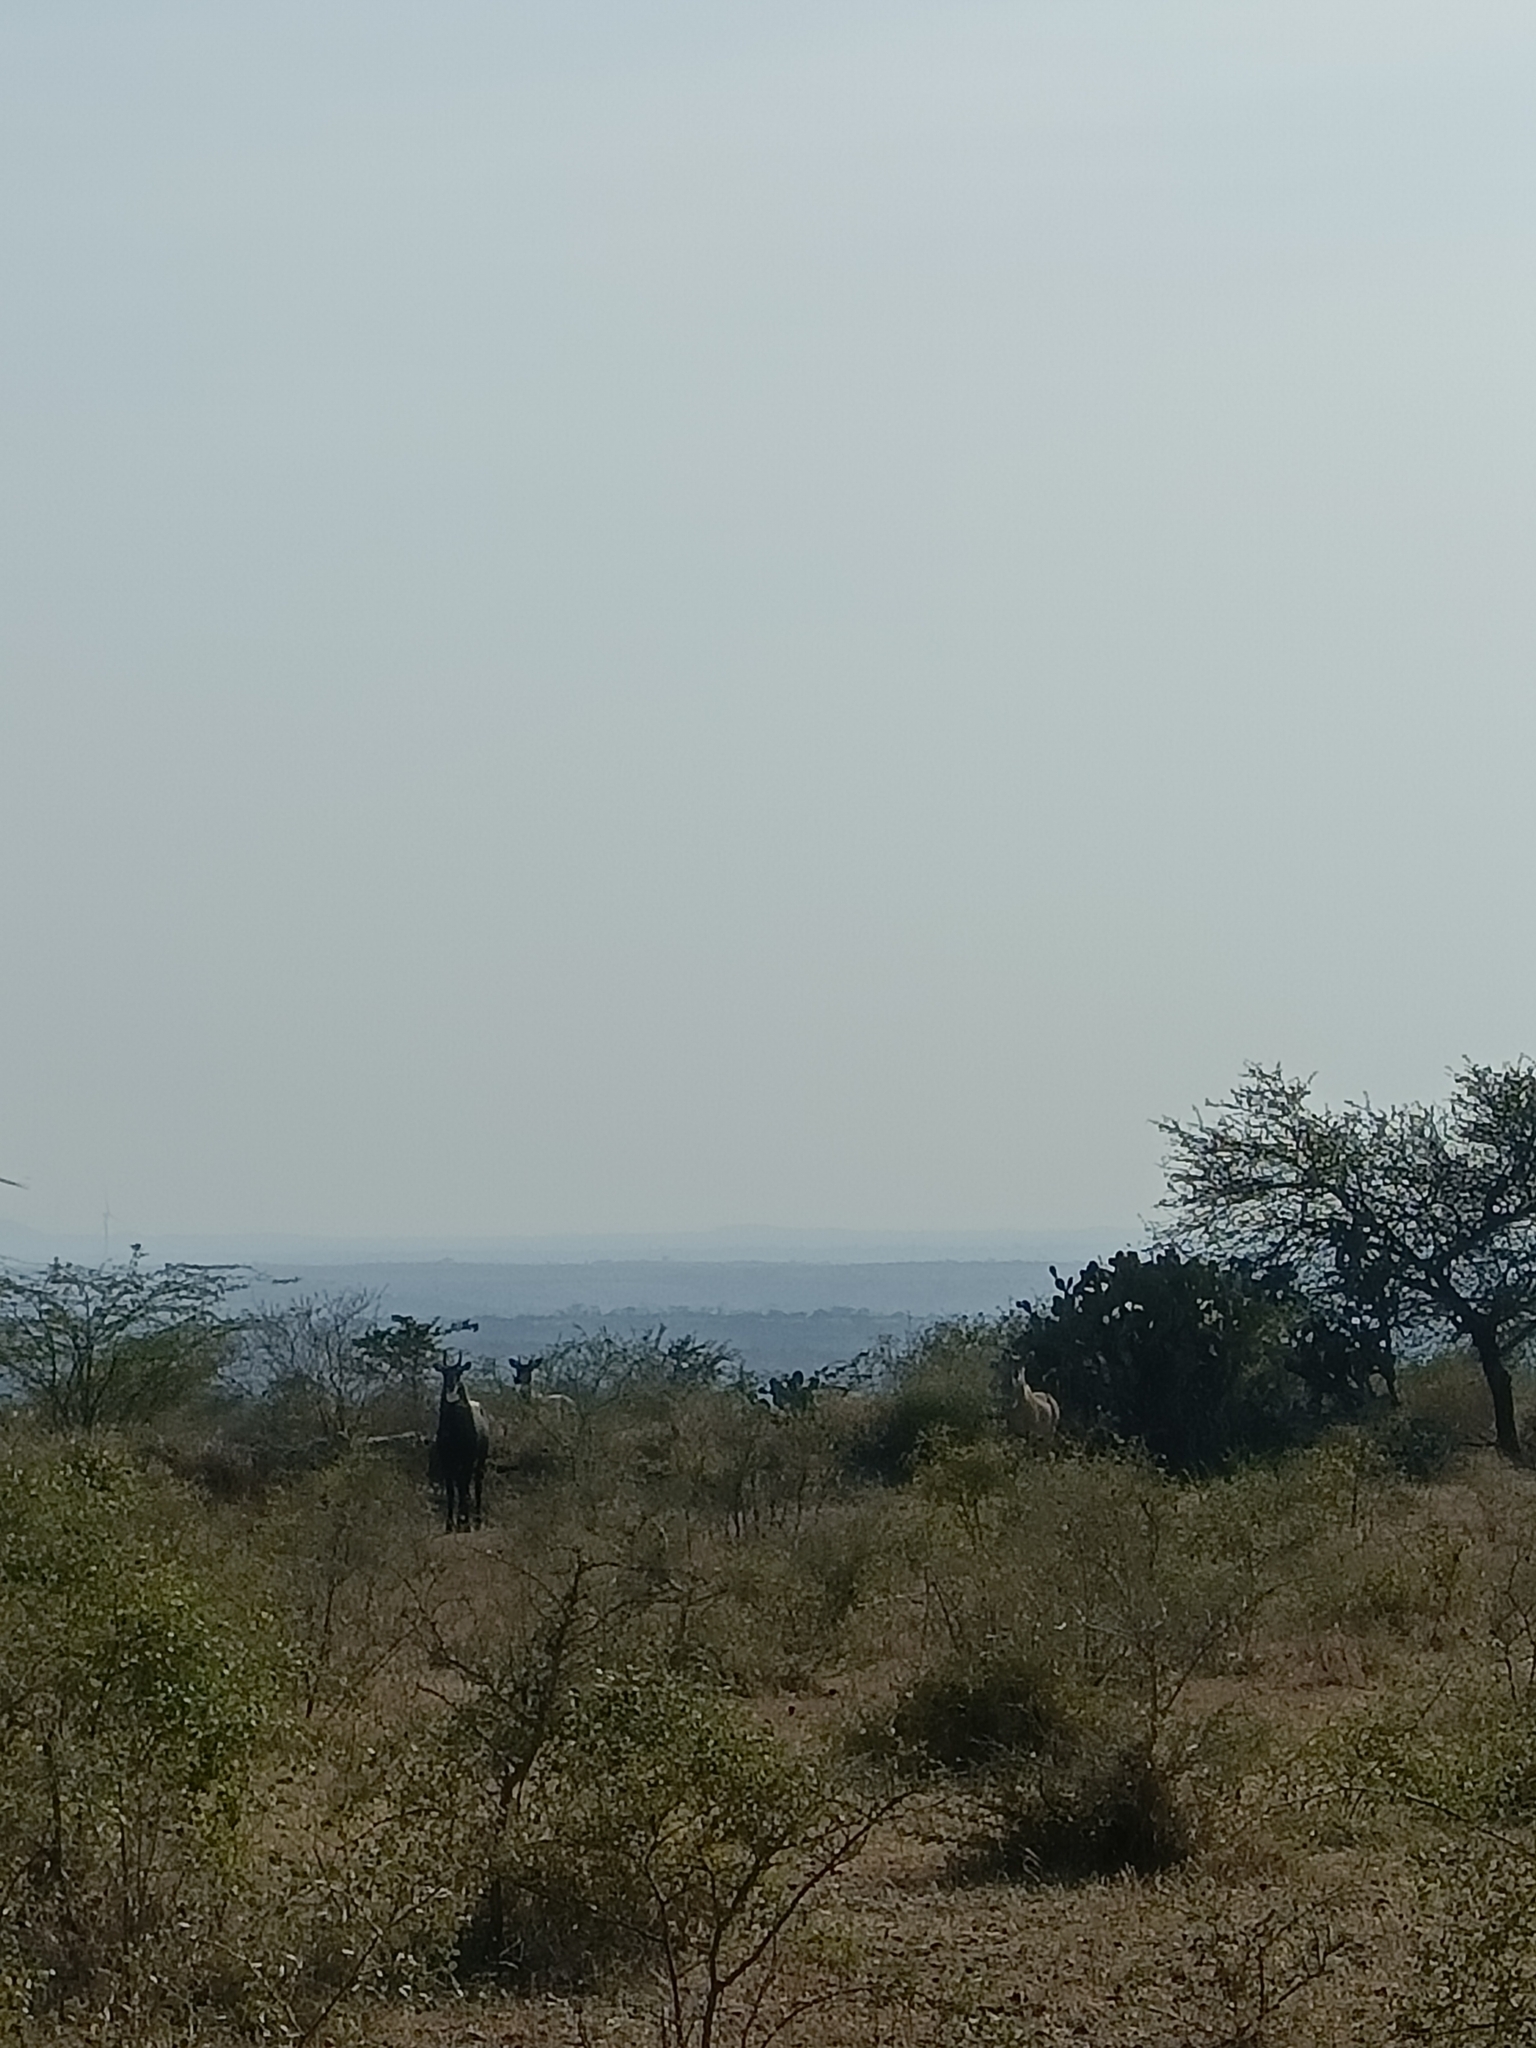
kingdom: Animalia
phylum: Chordata
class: Mammalia
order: Artiodactyla
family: Bovidae
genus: Boselaphus
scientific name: Boselaphus tragocamelus
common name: Nilgai
